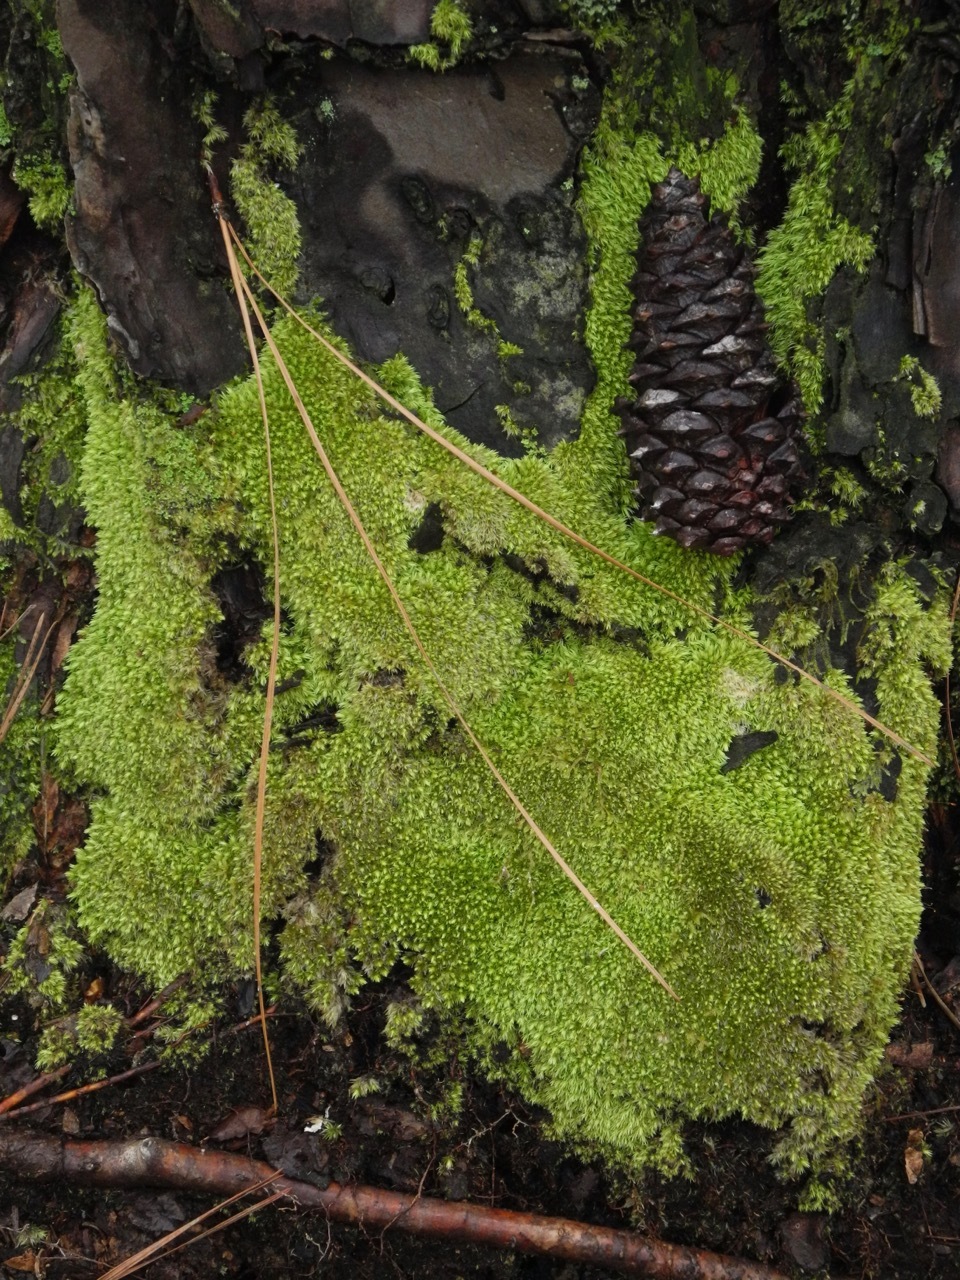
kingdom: Plantae
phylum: Tracheophyta
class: Pinopsida
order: Pinales
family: Pinaceae
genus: Pinus
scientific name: Pinus taeda
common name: Loblolly pine
